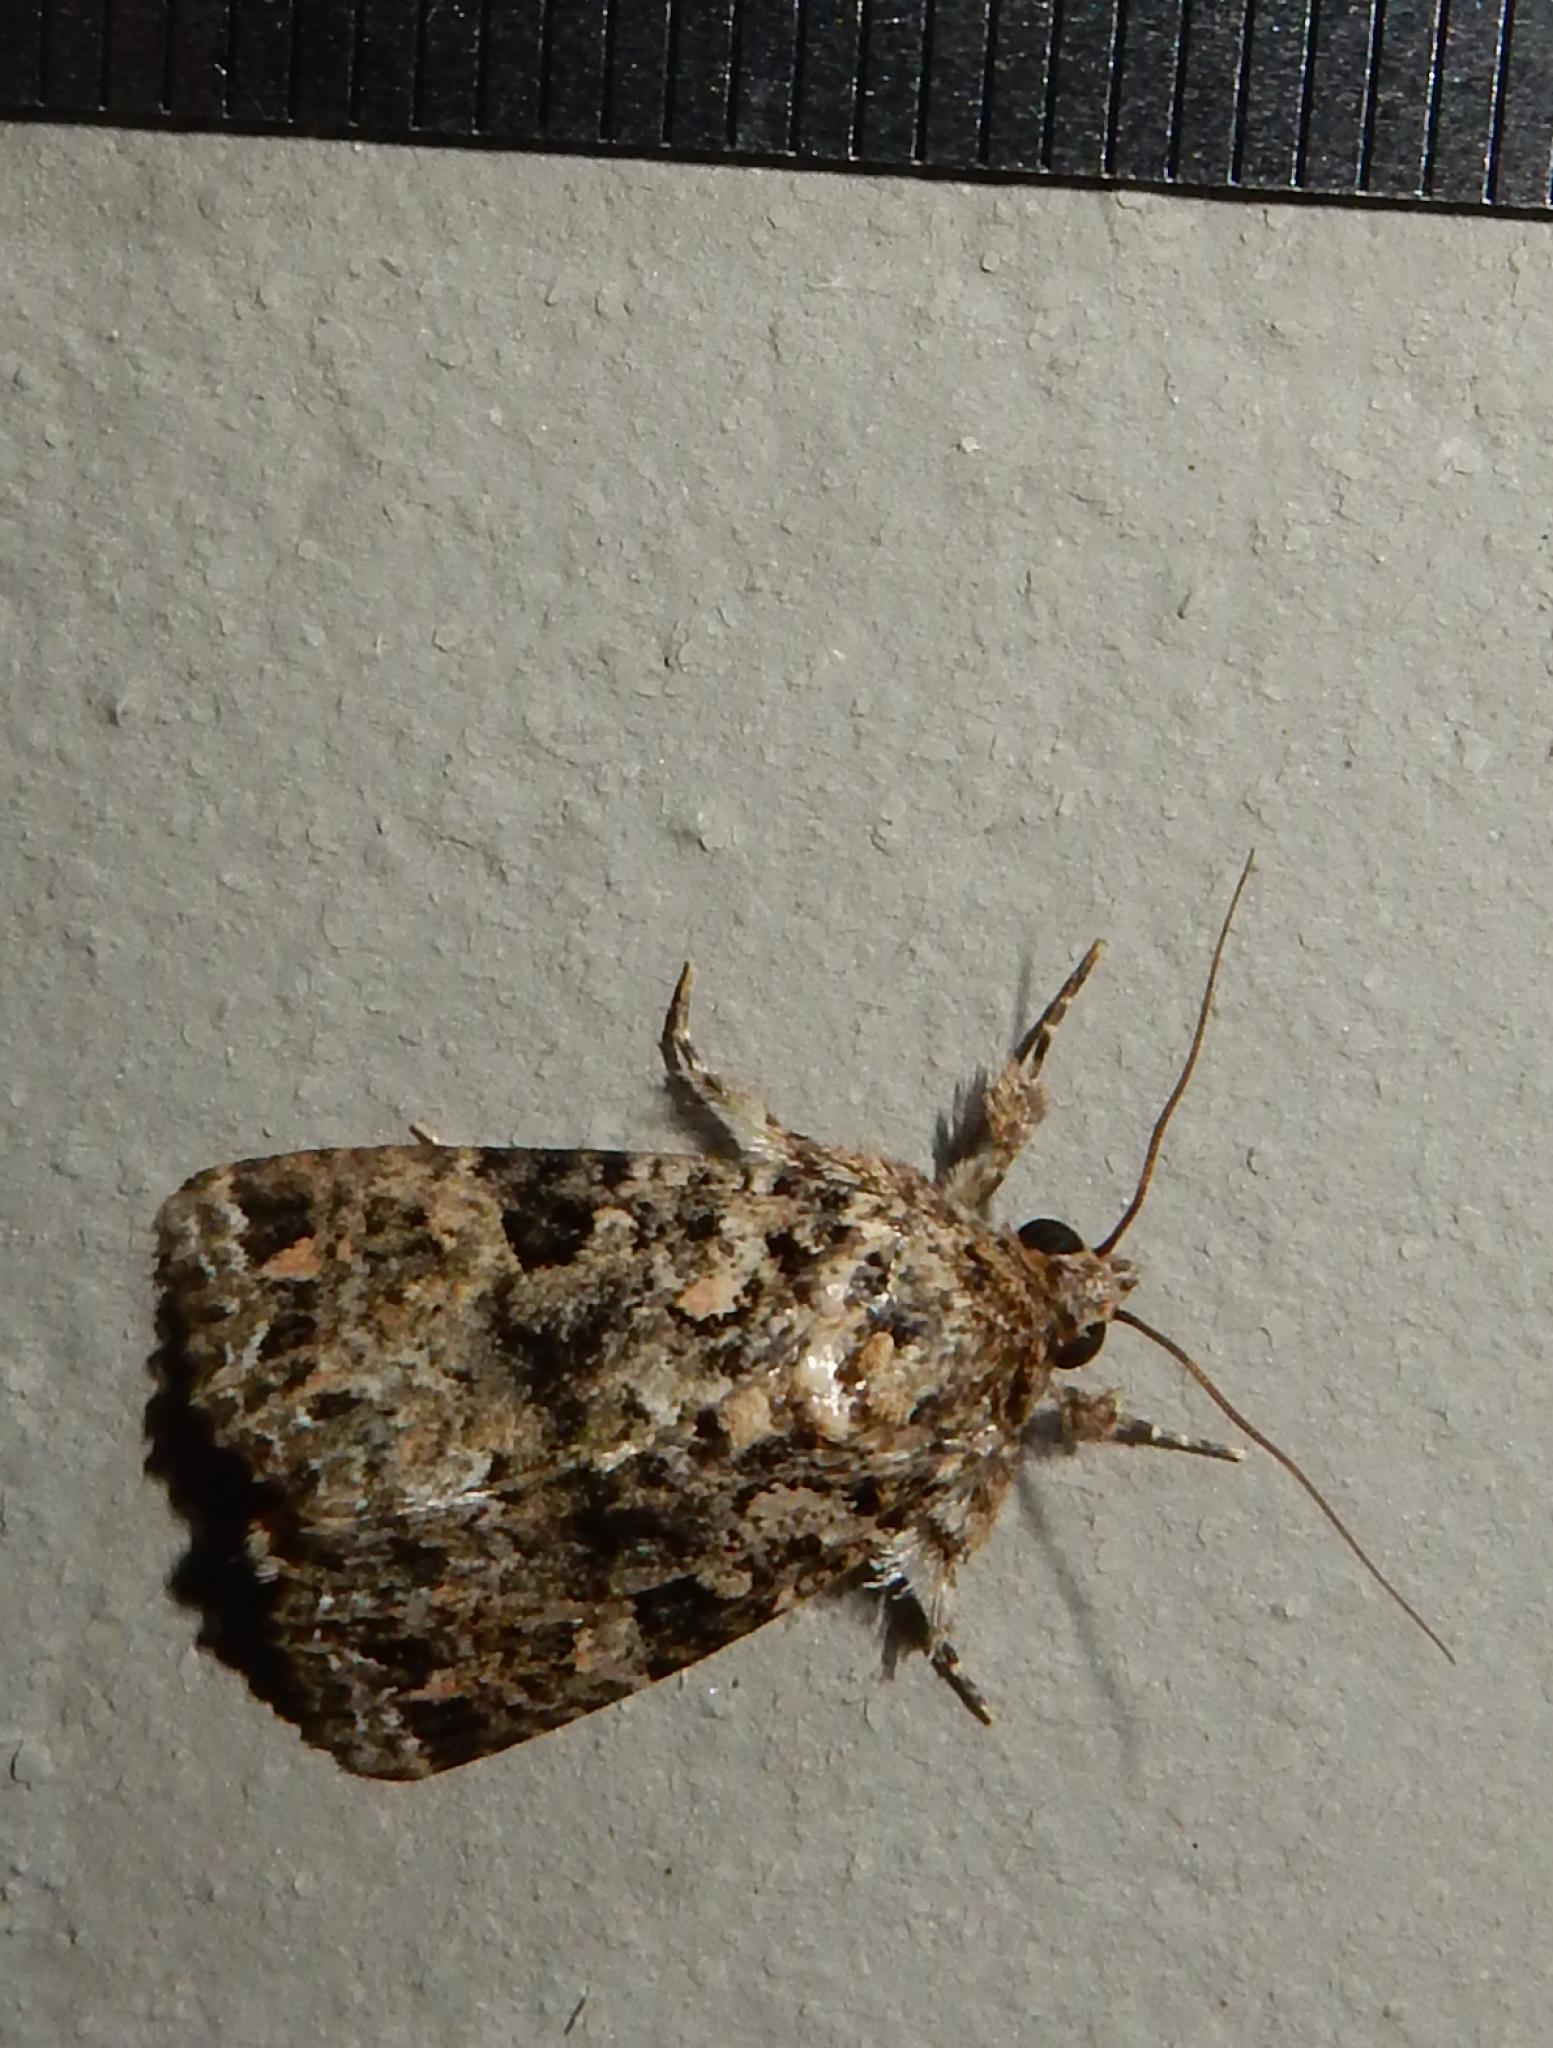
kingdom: Animalia
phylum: Arthropoda
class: Insecta
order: Lepidoptera
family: Noctuidae
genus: Callopistria
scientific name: Callopistria latreillei
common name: Latreille's latin
